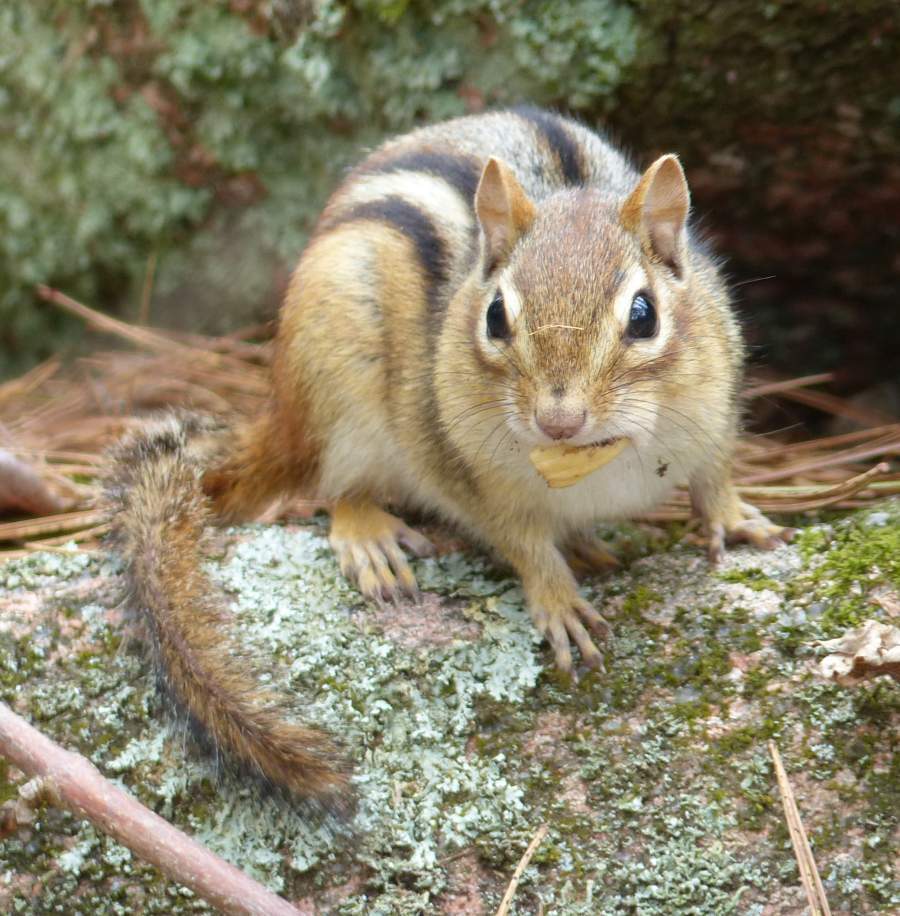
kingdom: Animalia
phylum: Chordata
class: Mammalia
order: Rodentia
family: Sciuridae
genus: Tamias
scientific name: Tamias striatus
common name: Eastern chipmunk
